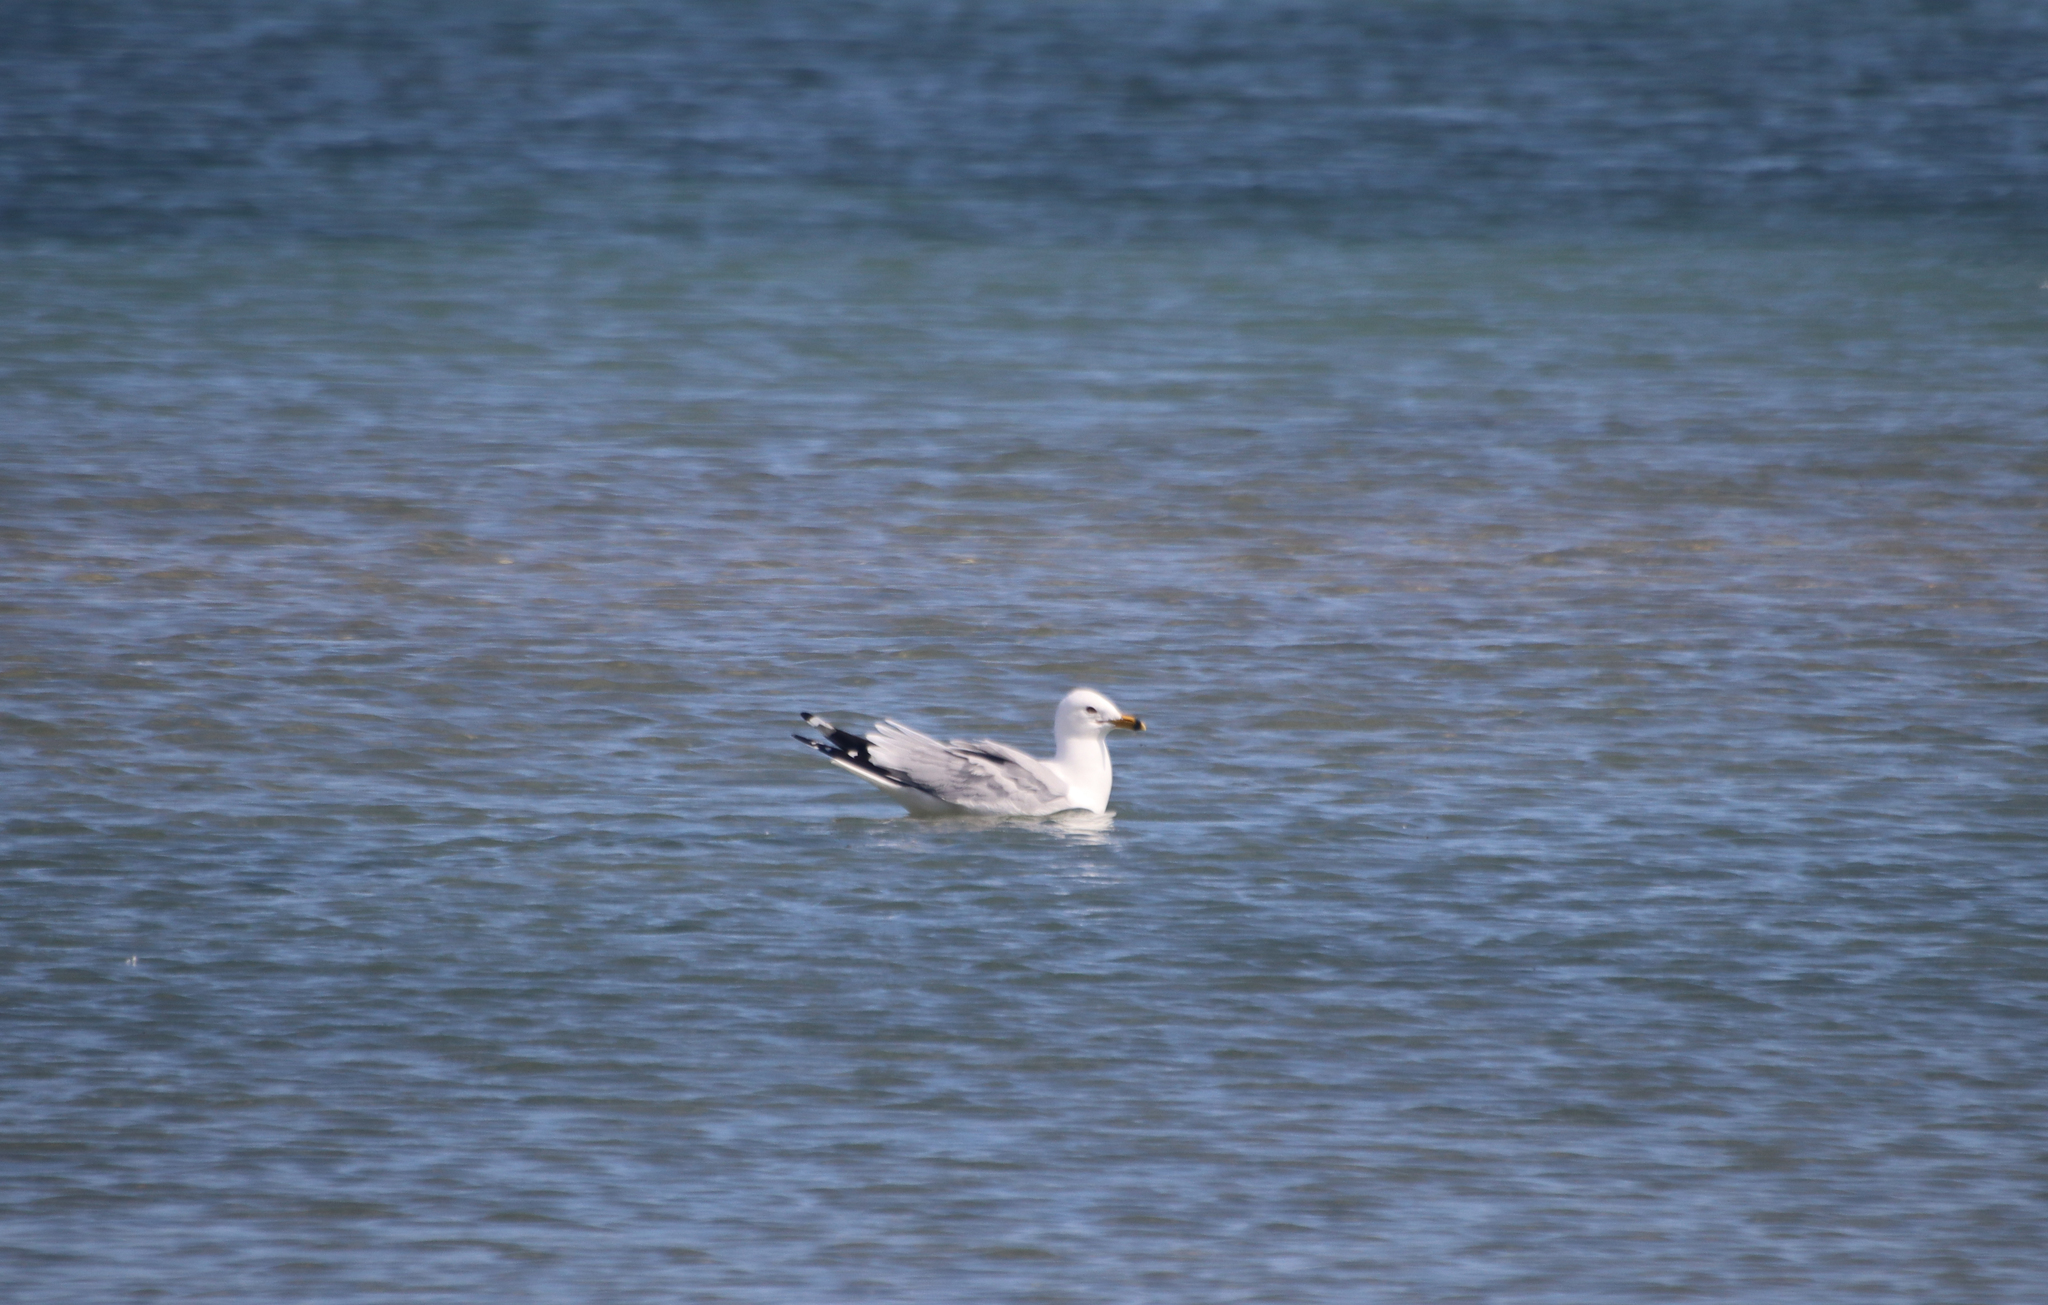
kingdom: Animalia
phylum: Chordata
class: Aves
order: Charadriiformes
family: Laridae
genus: Larus
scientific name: Larus delawarensis
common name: Ring-billed gull
